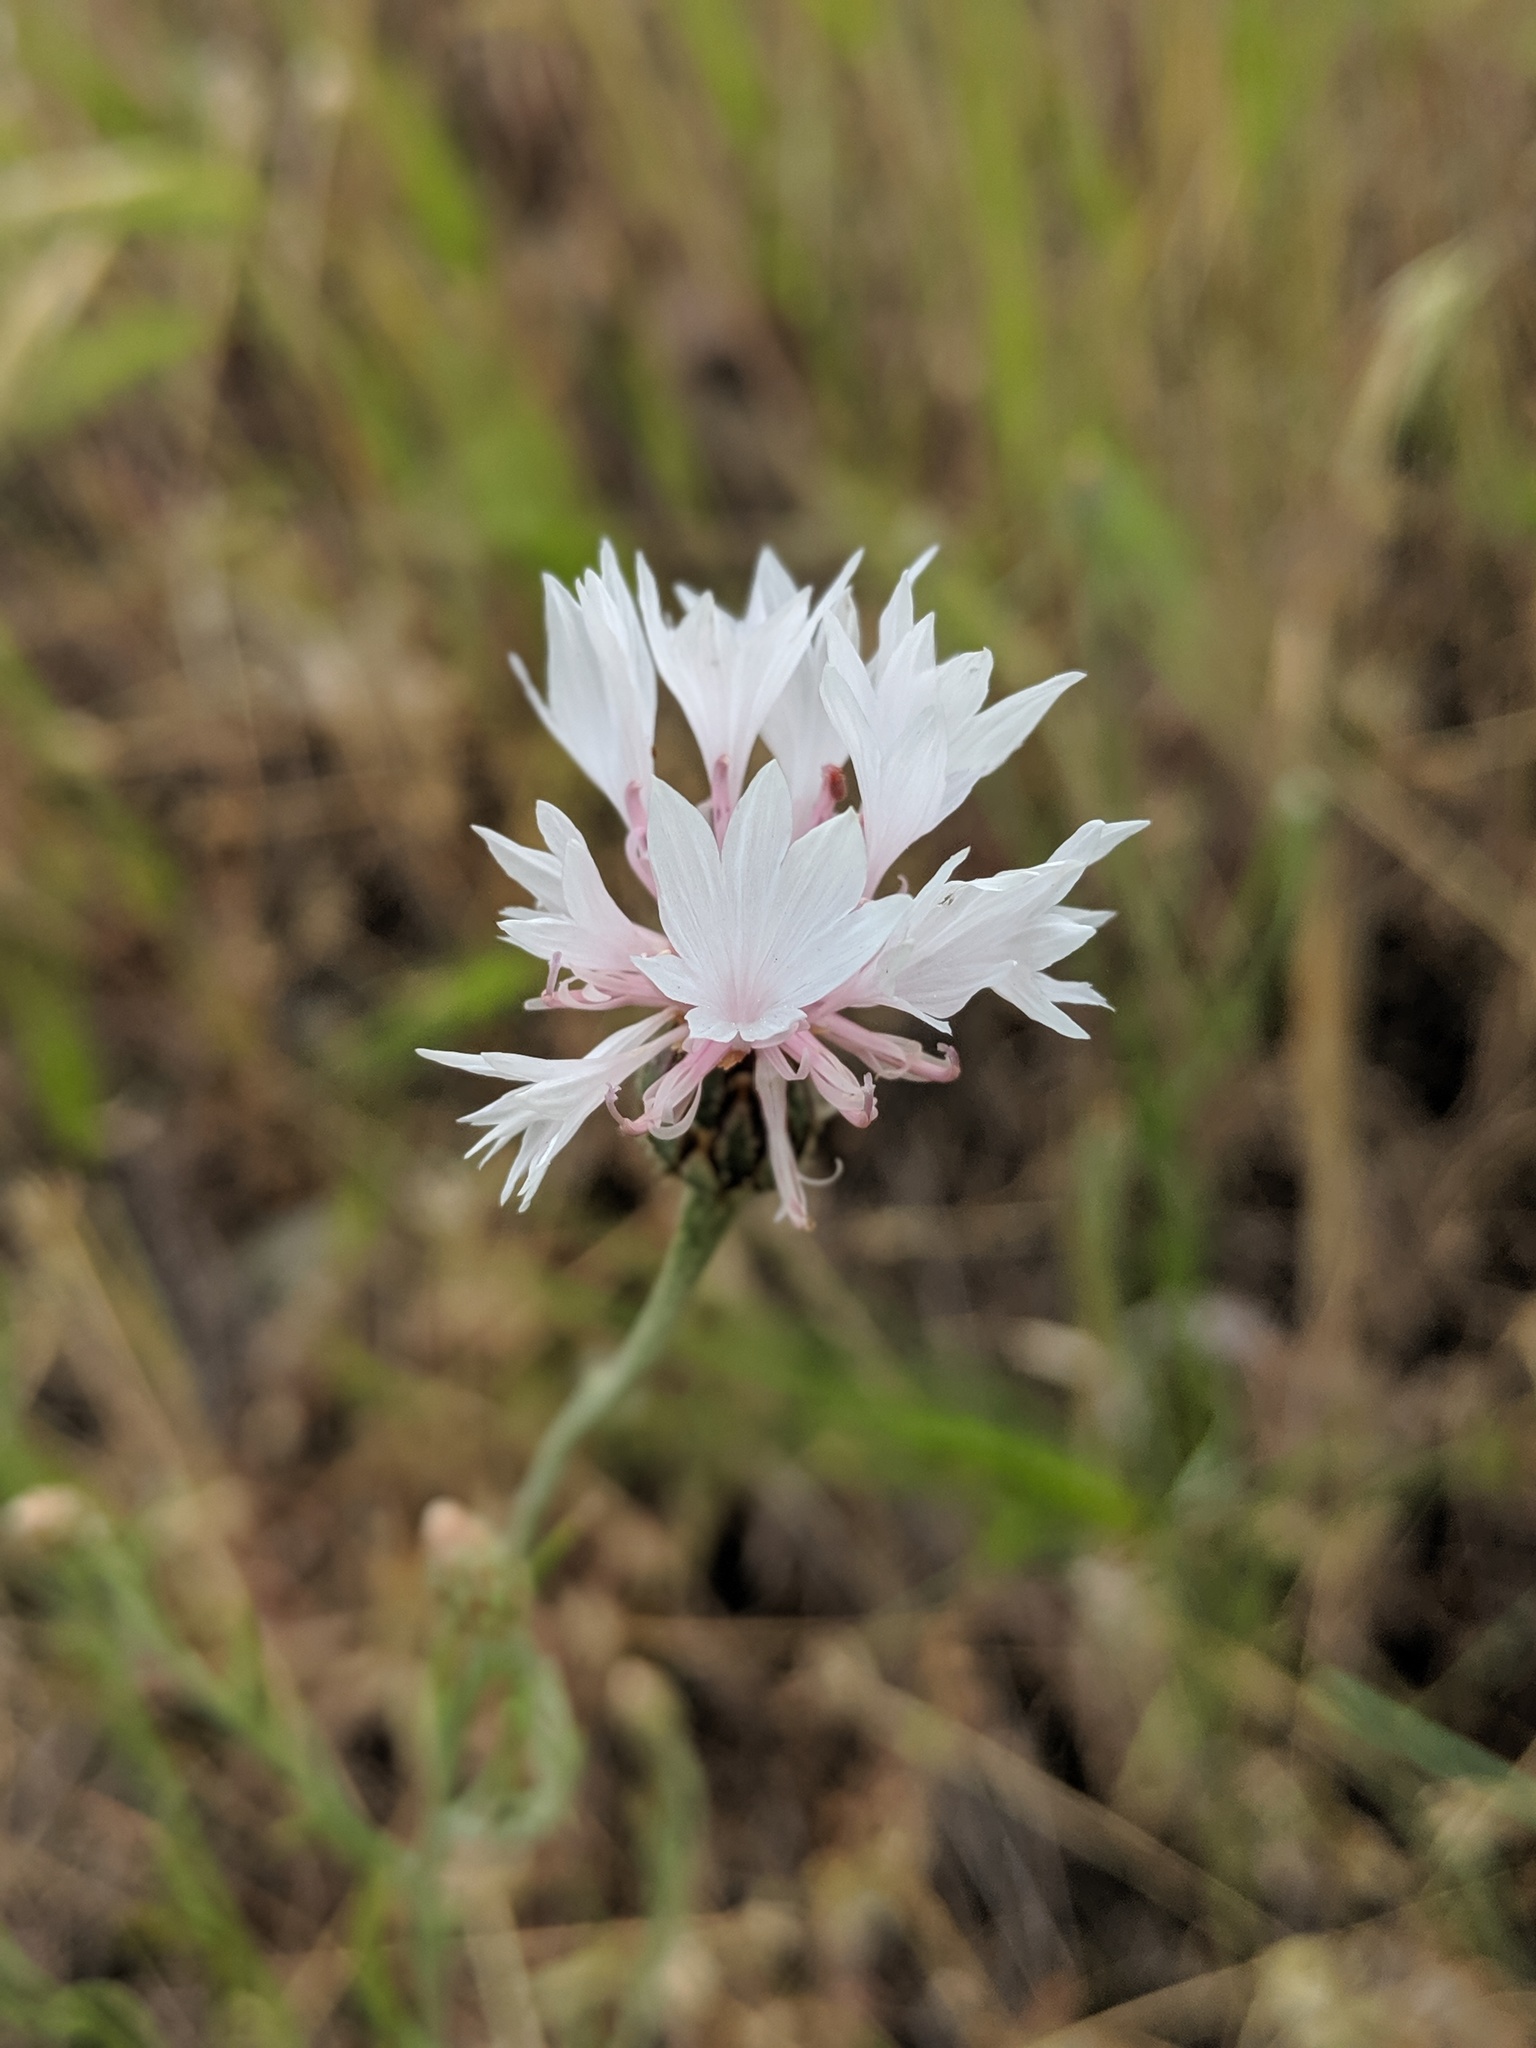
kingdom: Plantae
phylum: Tracheophyta
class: Magnoliopsida
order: Asterales
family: Asteraceae
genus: Centaurea
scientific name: Centaurea cyanus
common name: Cornflower
